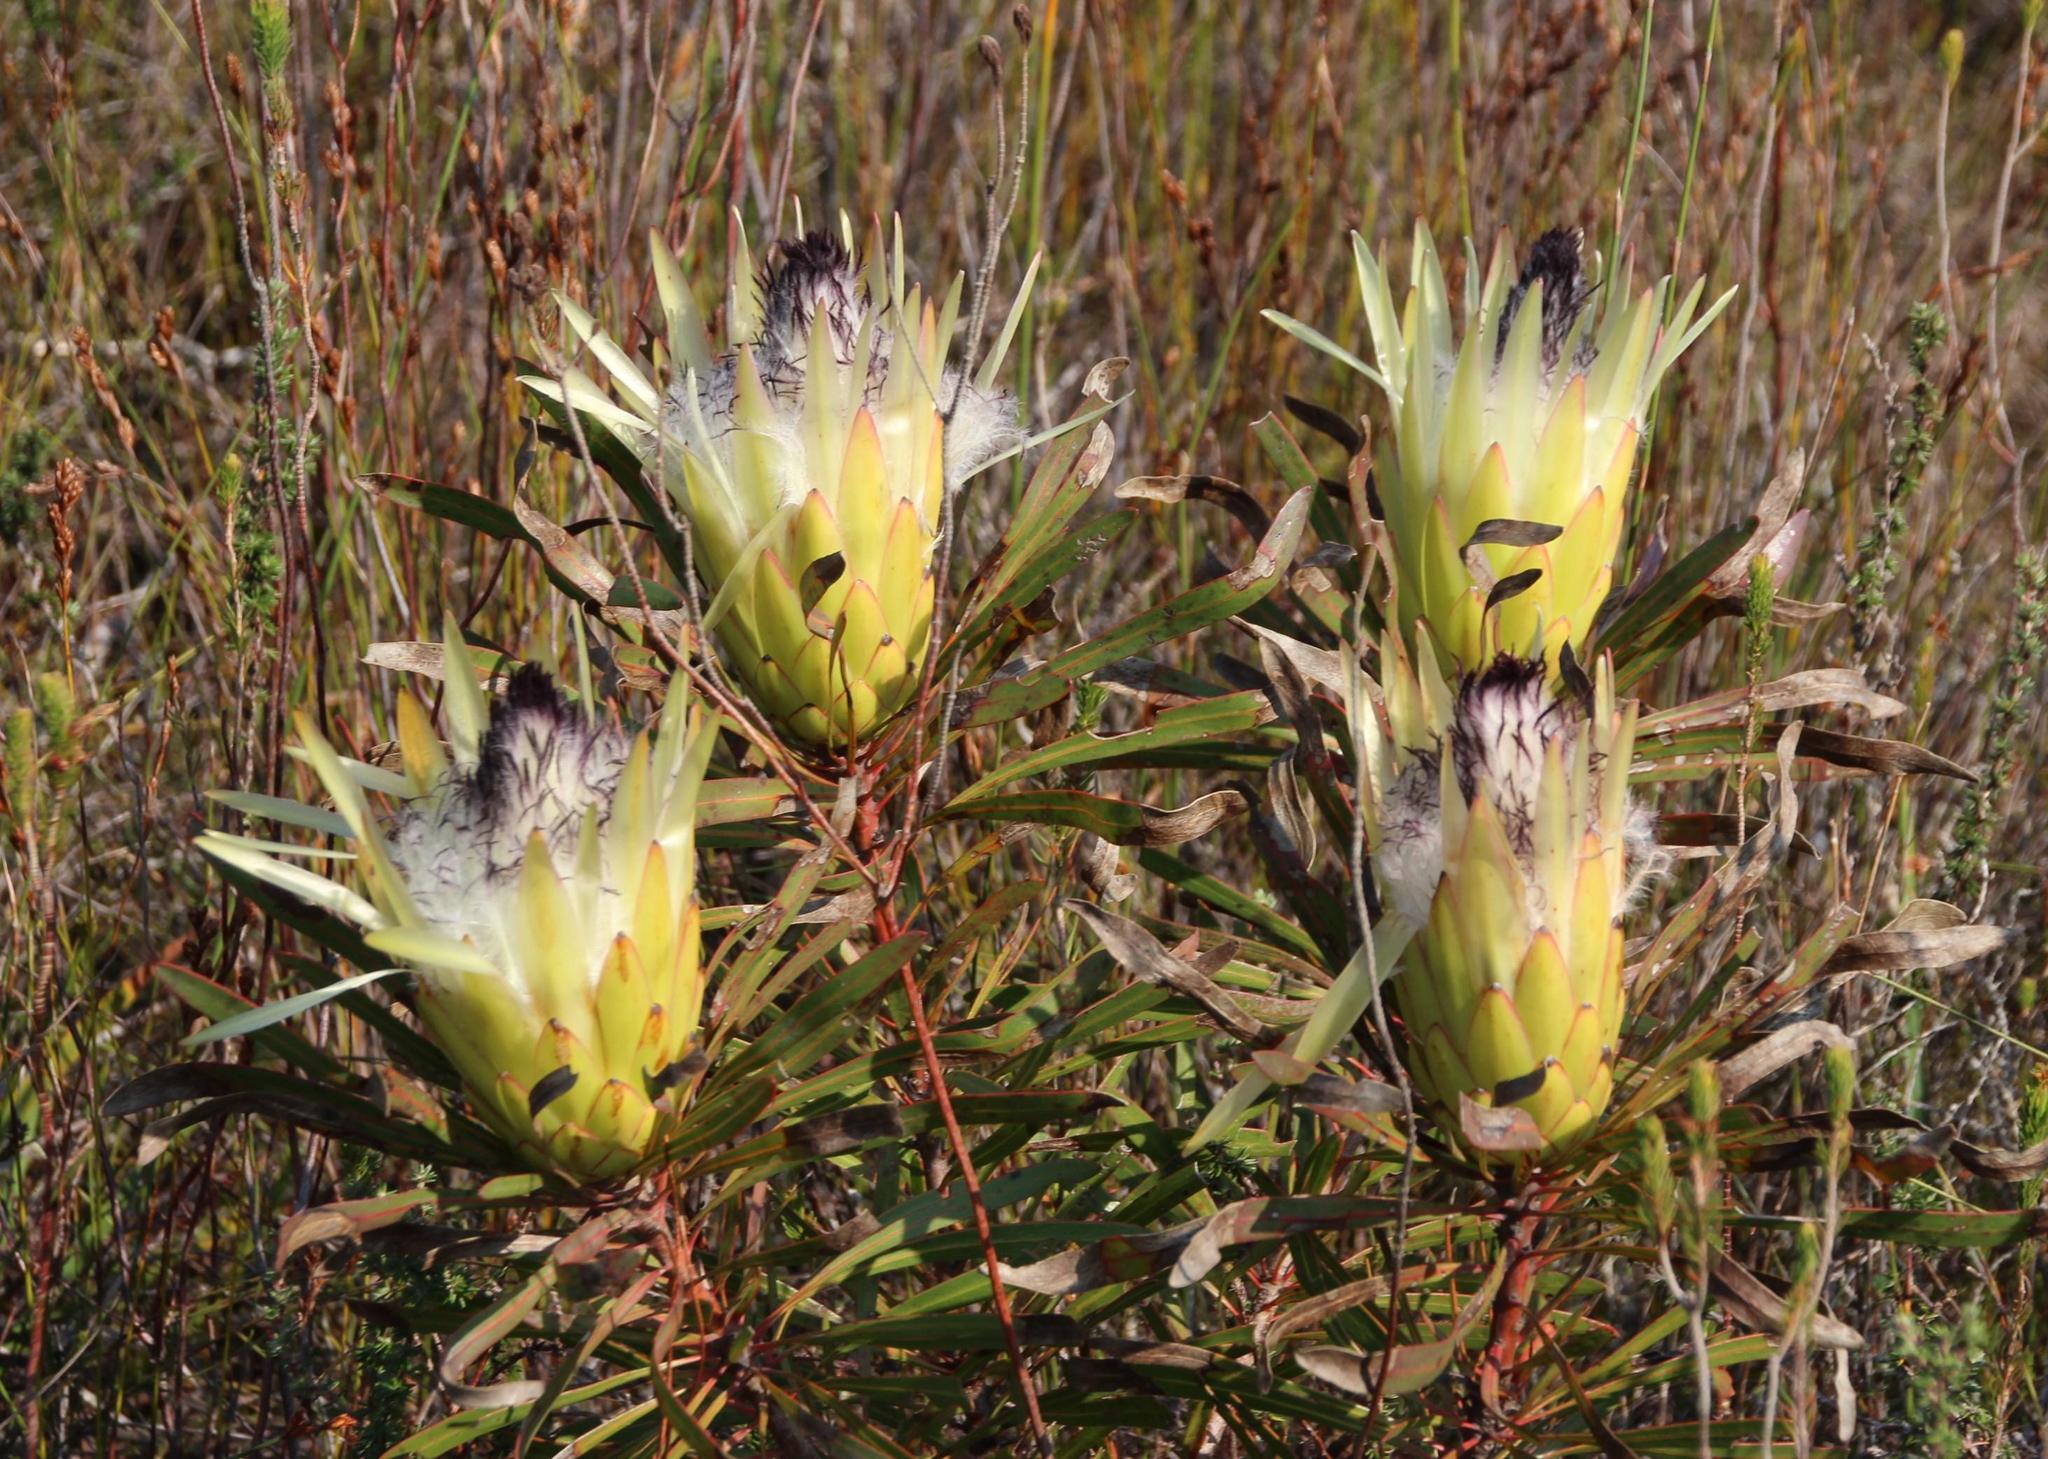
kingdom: Plantae
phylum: Tracheophyta
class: Magnoliopsida
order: Proteales
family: Proteaceae
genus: Protea
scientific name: Protea longifolia
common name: Long-leaf sugarbush
